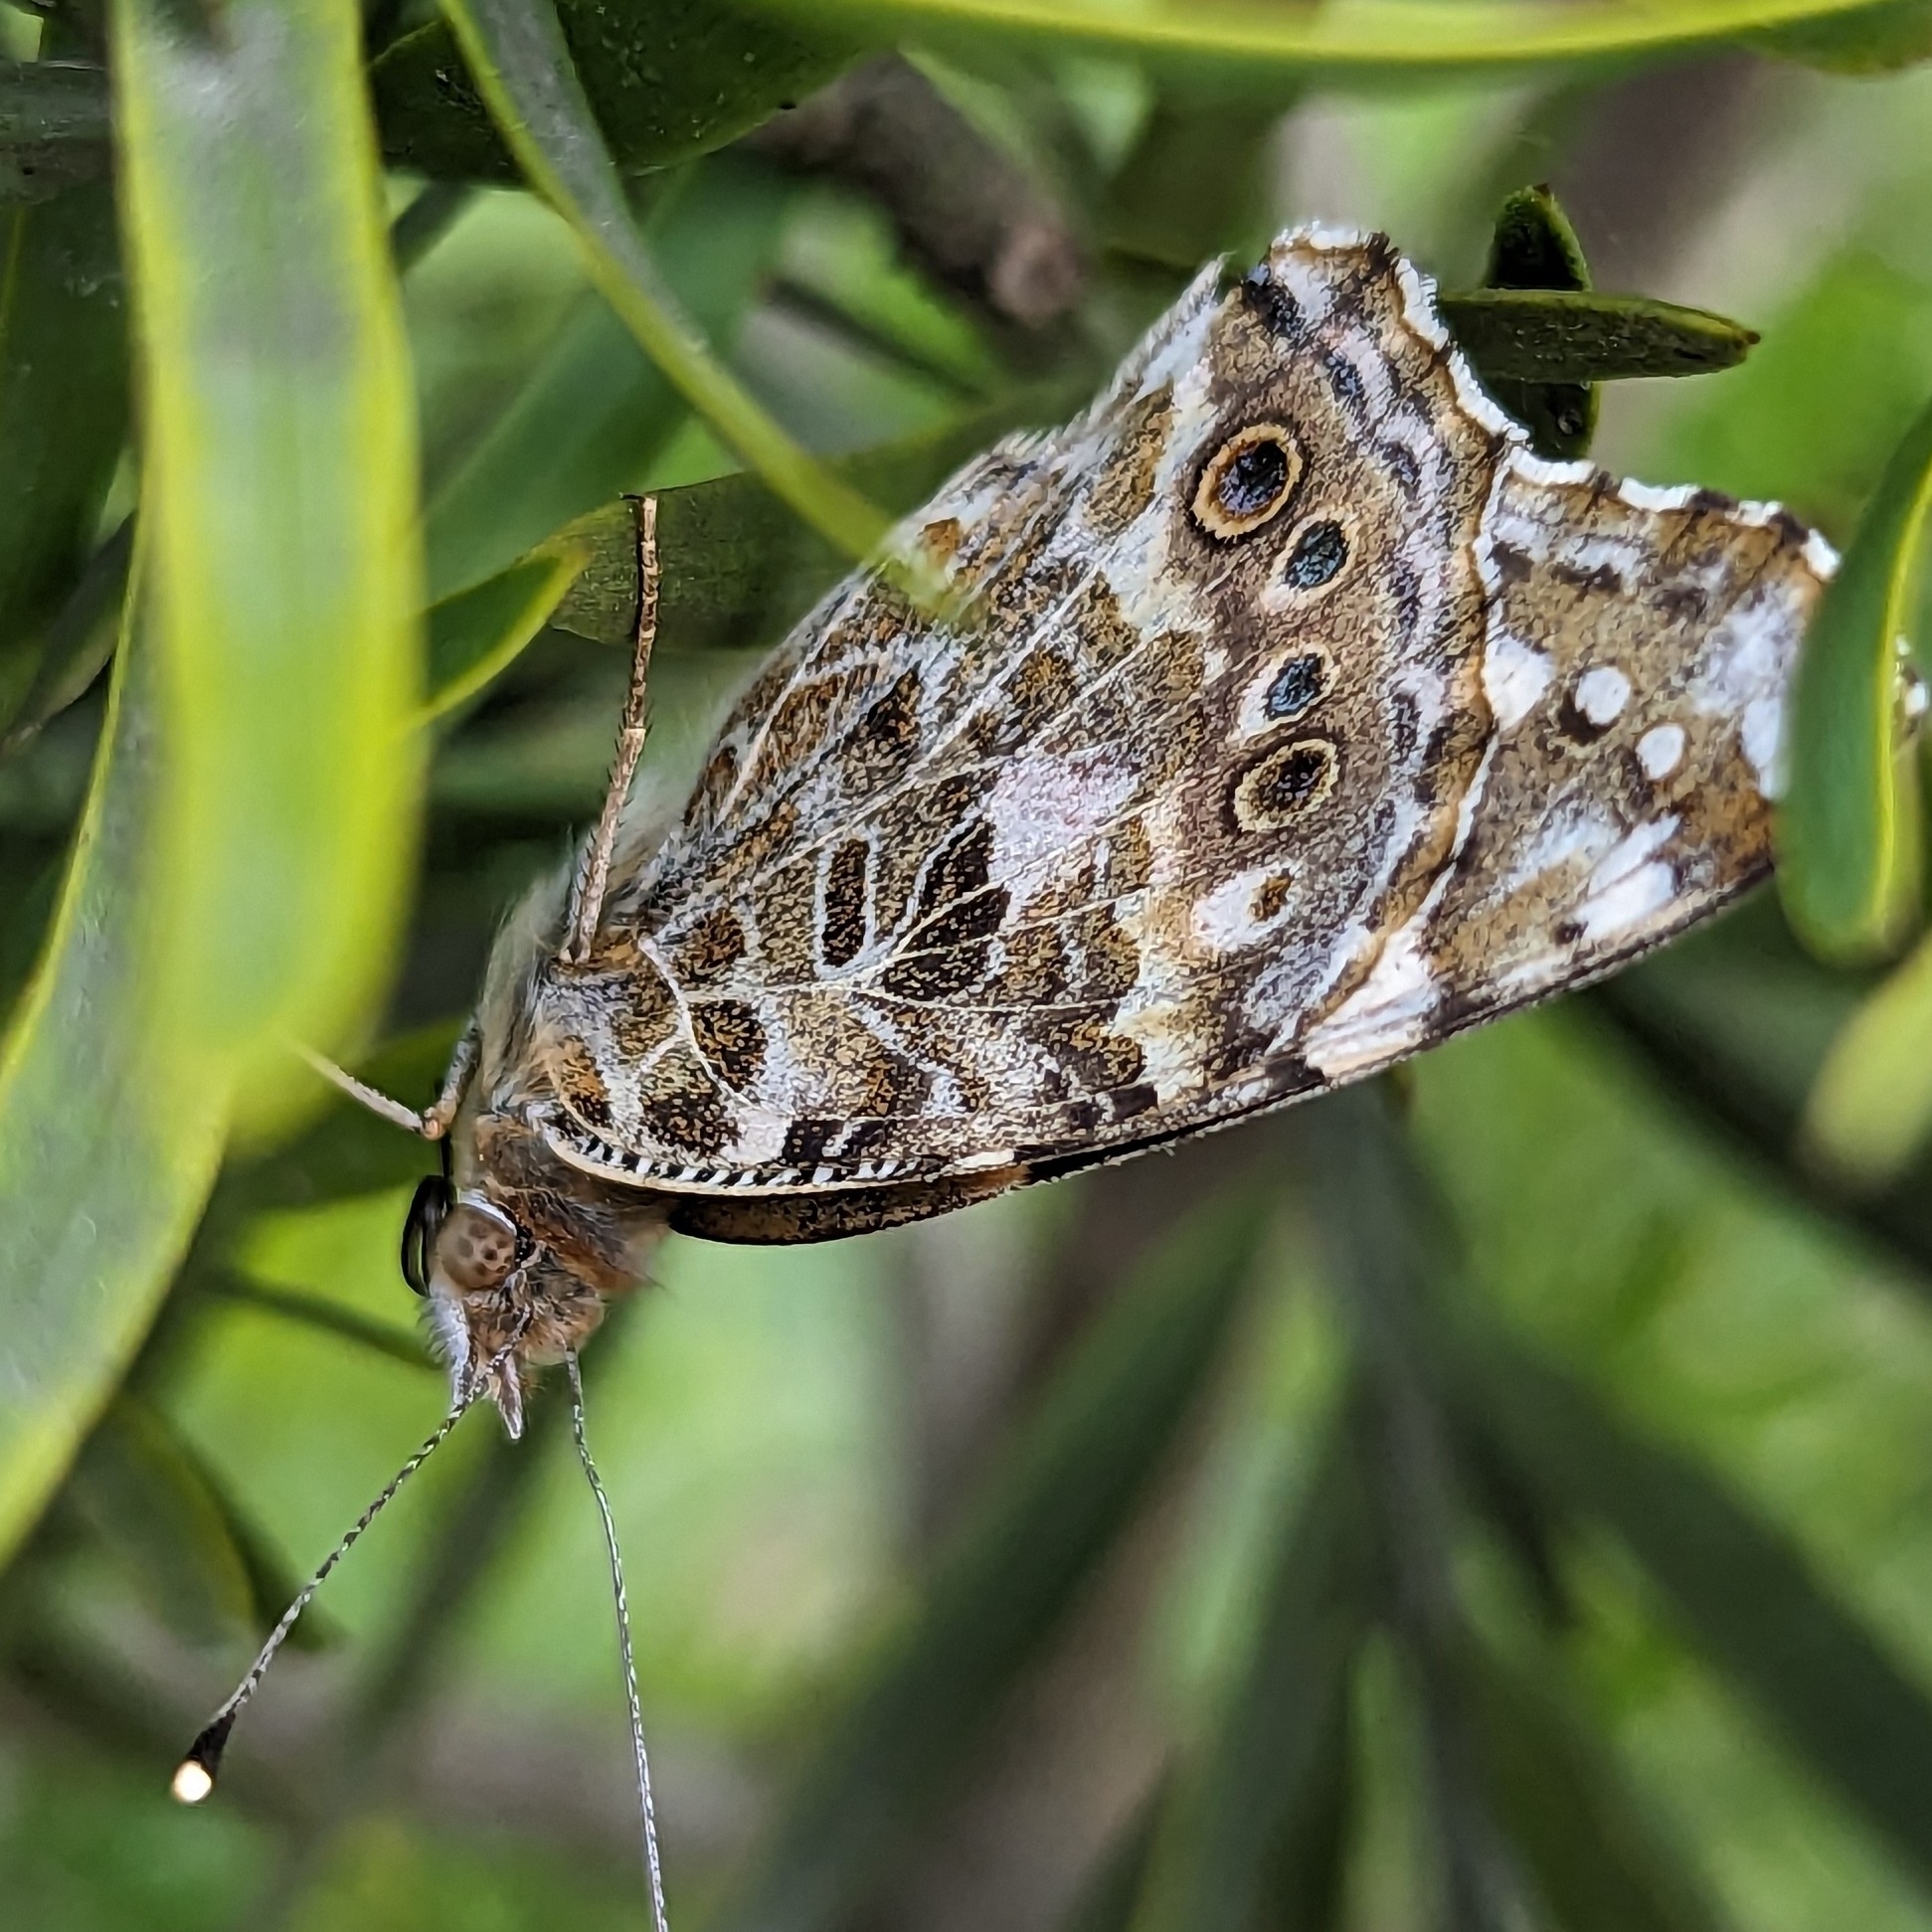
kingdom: Animalia
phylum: Arthropoda
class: Insecta
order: Lepidoptera
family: Nymphalidae
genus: Vanessa
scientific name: Vanessa cardui
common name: Painted lady
